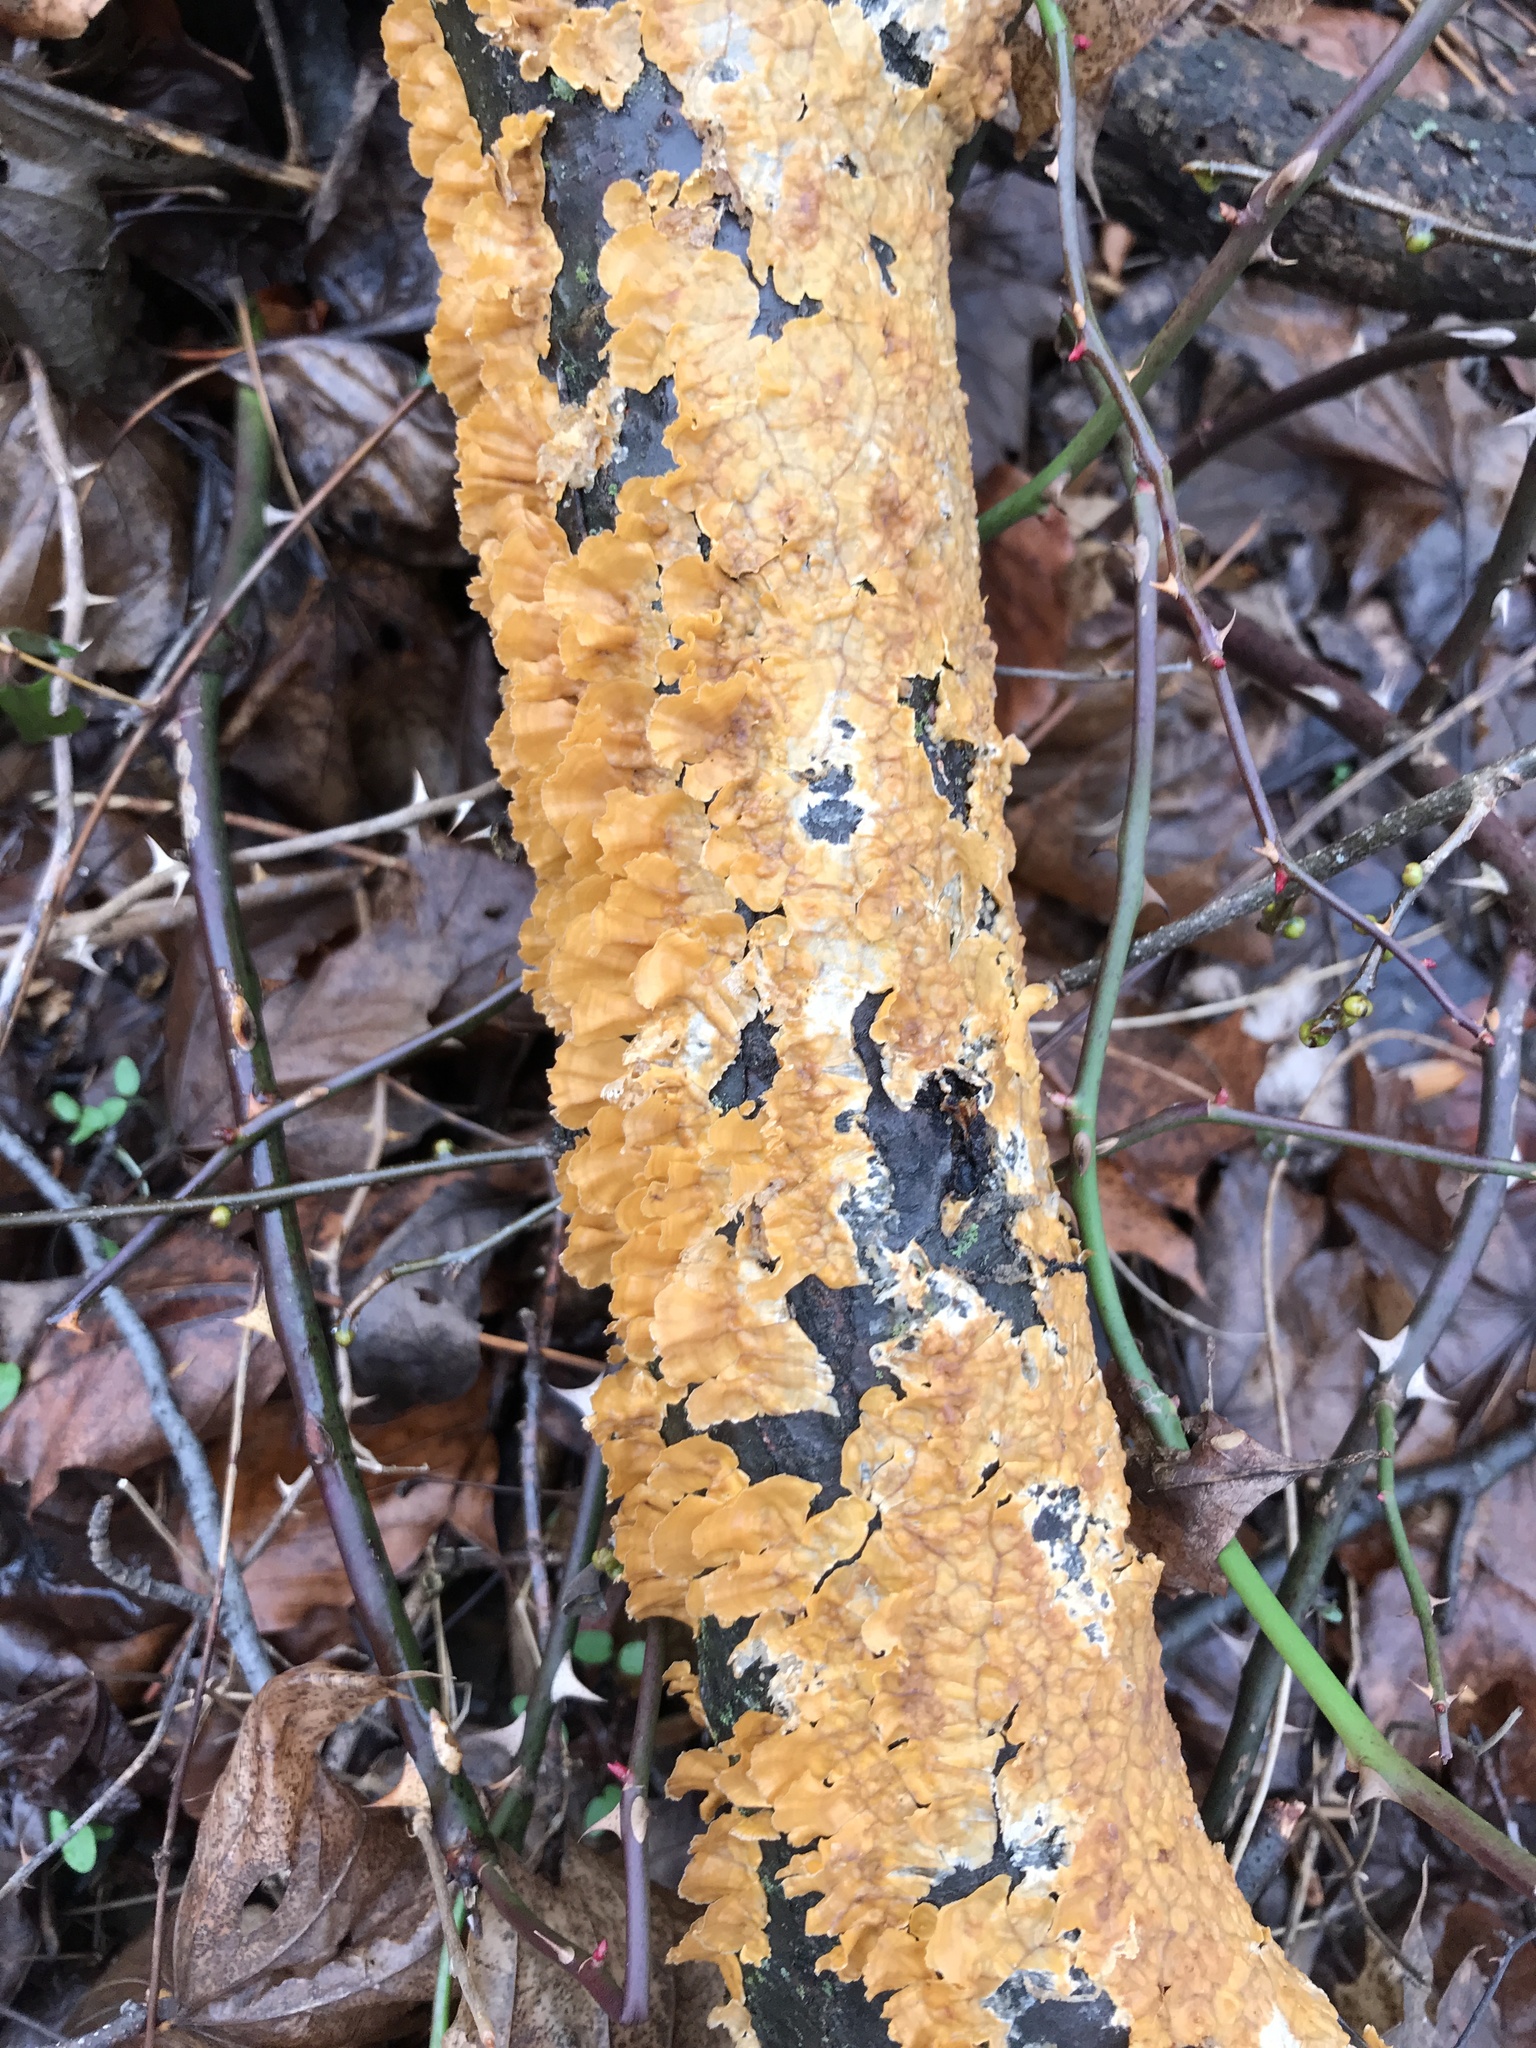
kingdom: Fungi
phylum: Basidiomycota
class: Agaricomycetes
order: Russulales
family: Stereaceae
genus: Stereum
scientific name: Stereum complicatum
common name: Crowded parchment
